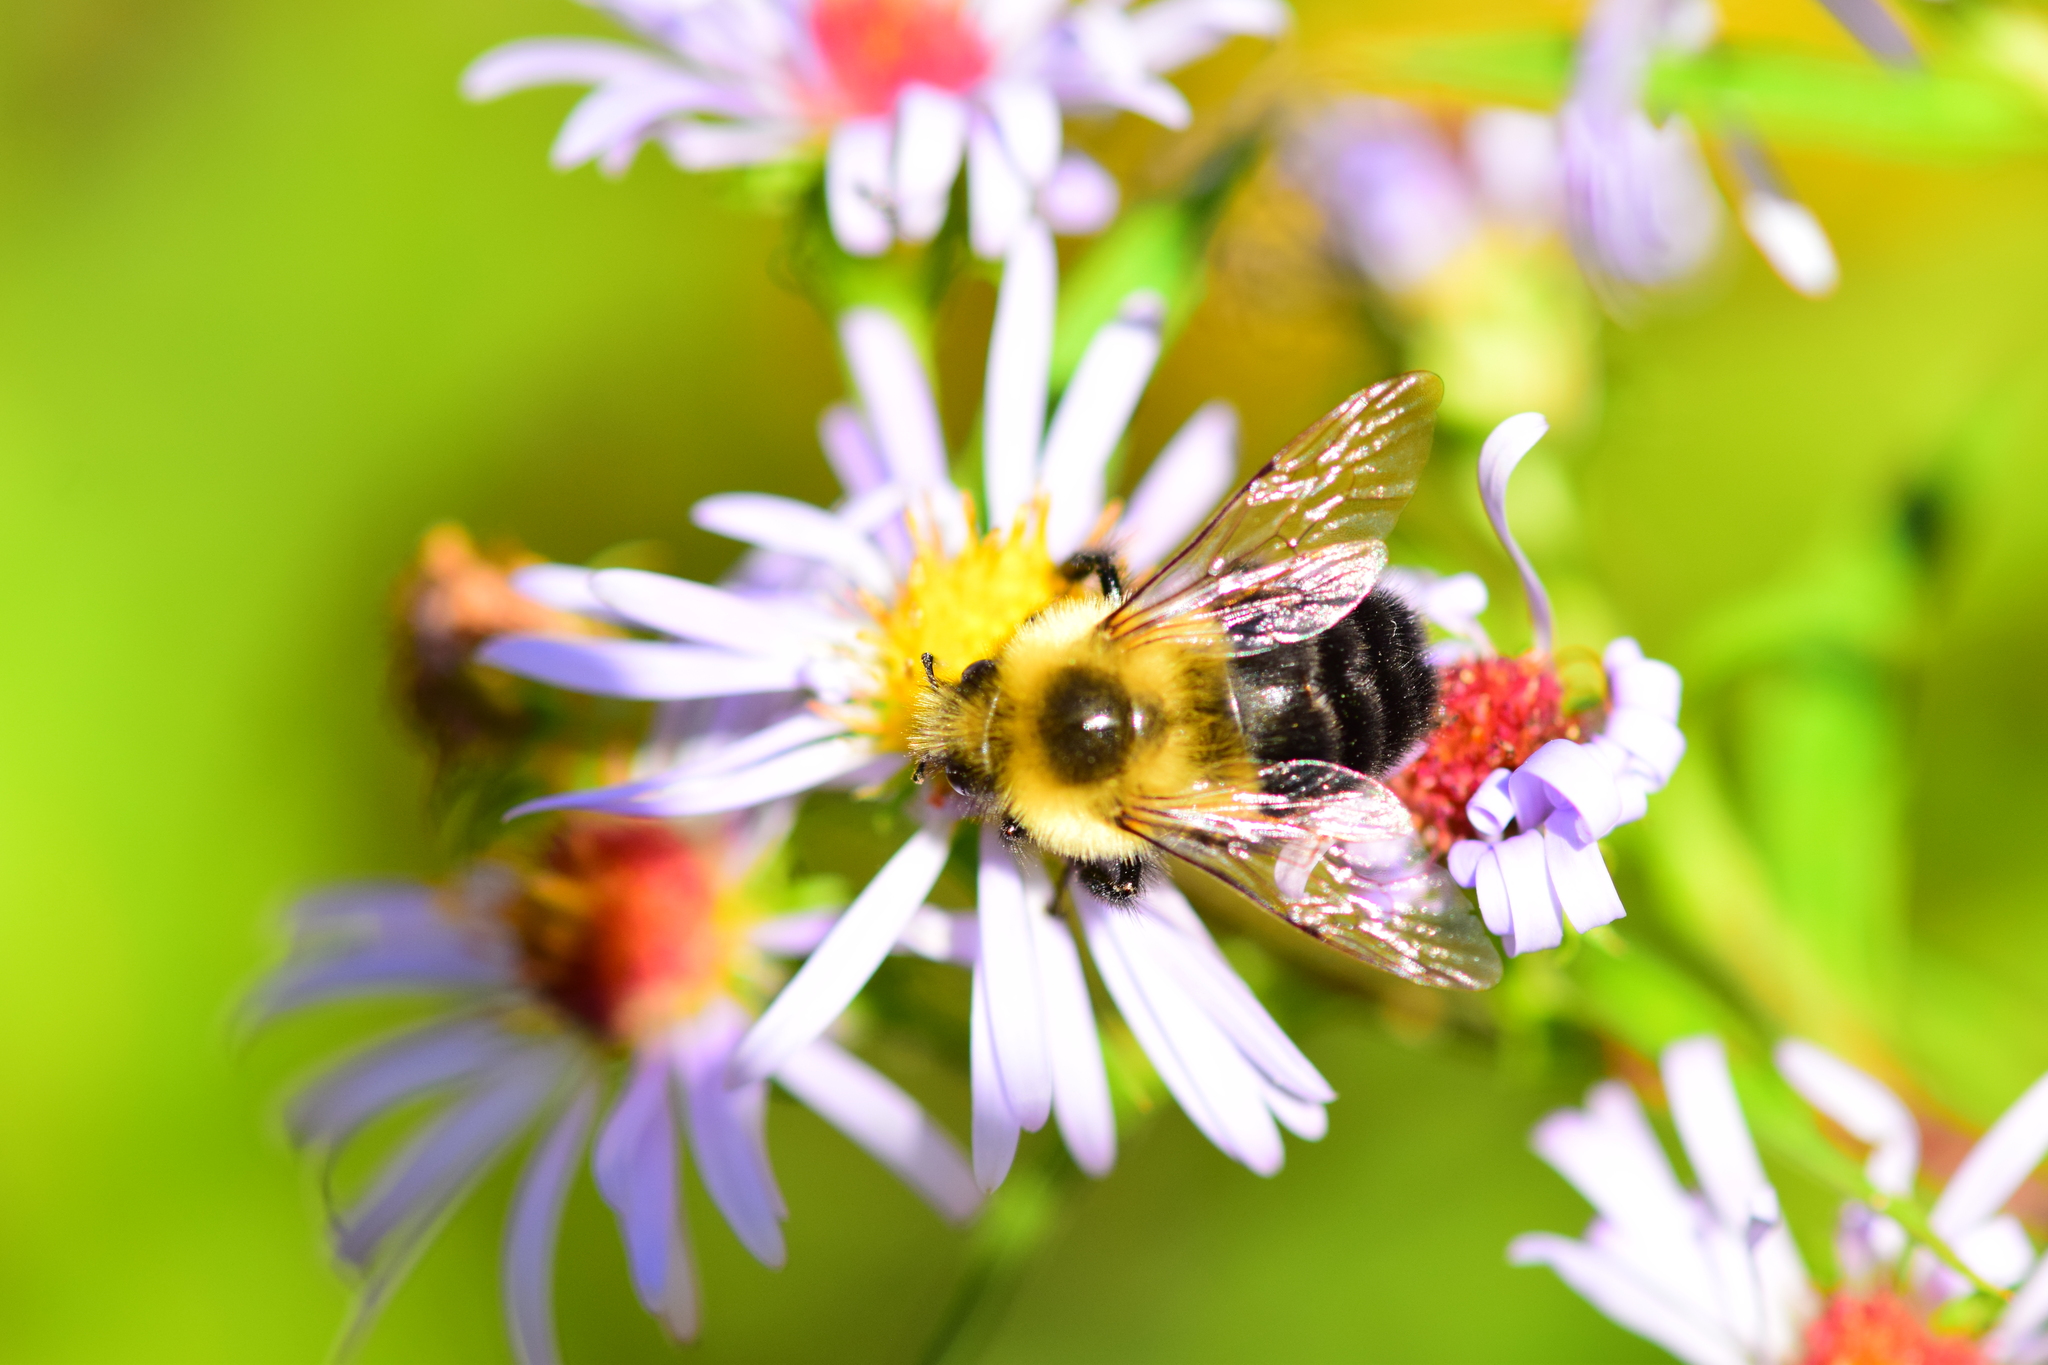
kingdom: Animalia
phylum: Arthropoda
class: Insecta
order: Hymenoptera
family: Apidae
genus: Bombus
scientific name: Bombus impatiens
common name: Common eastern bumble bee
